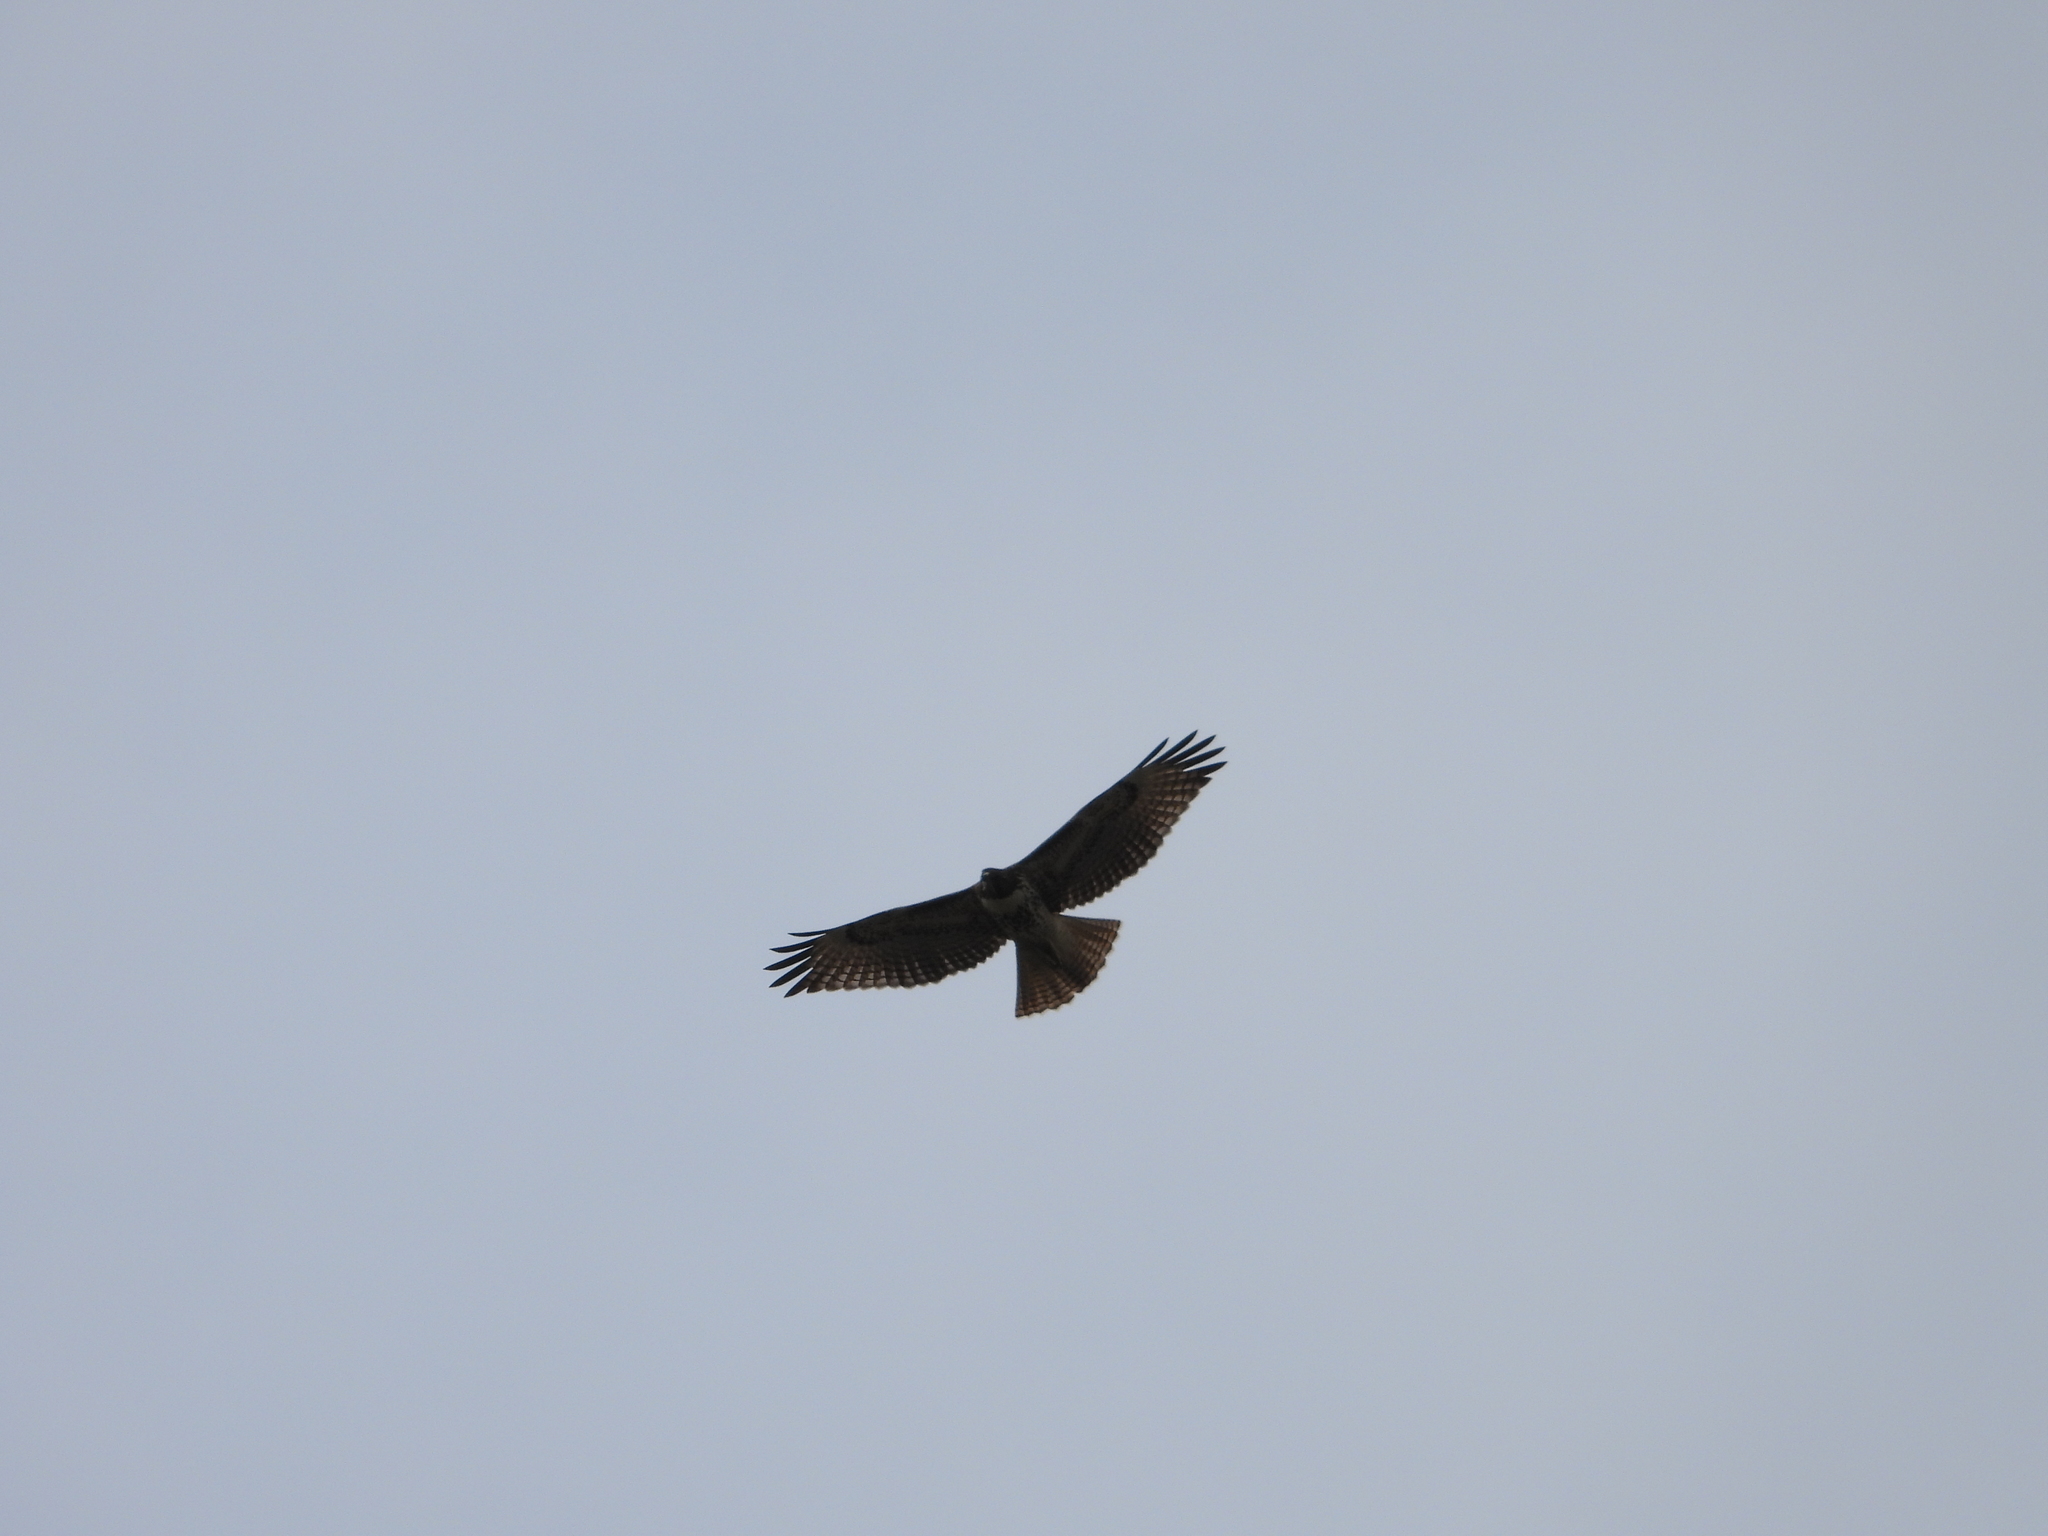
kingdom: Animalia
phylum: Chordata
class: Aves
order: Accipitriformes
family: Accipitridae
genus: Buteo
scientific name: Buteo jamaicensis
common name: Red-tailed hawk
